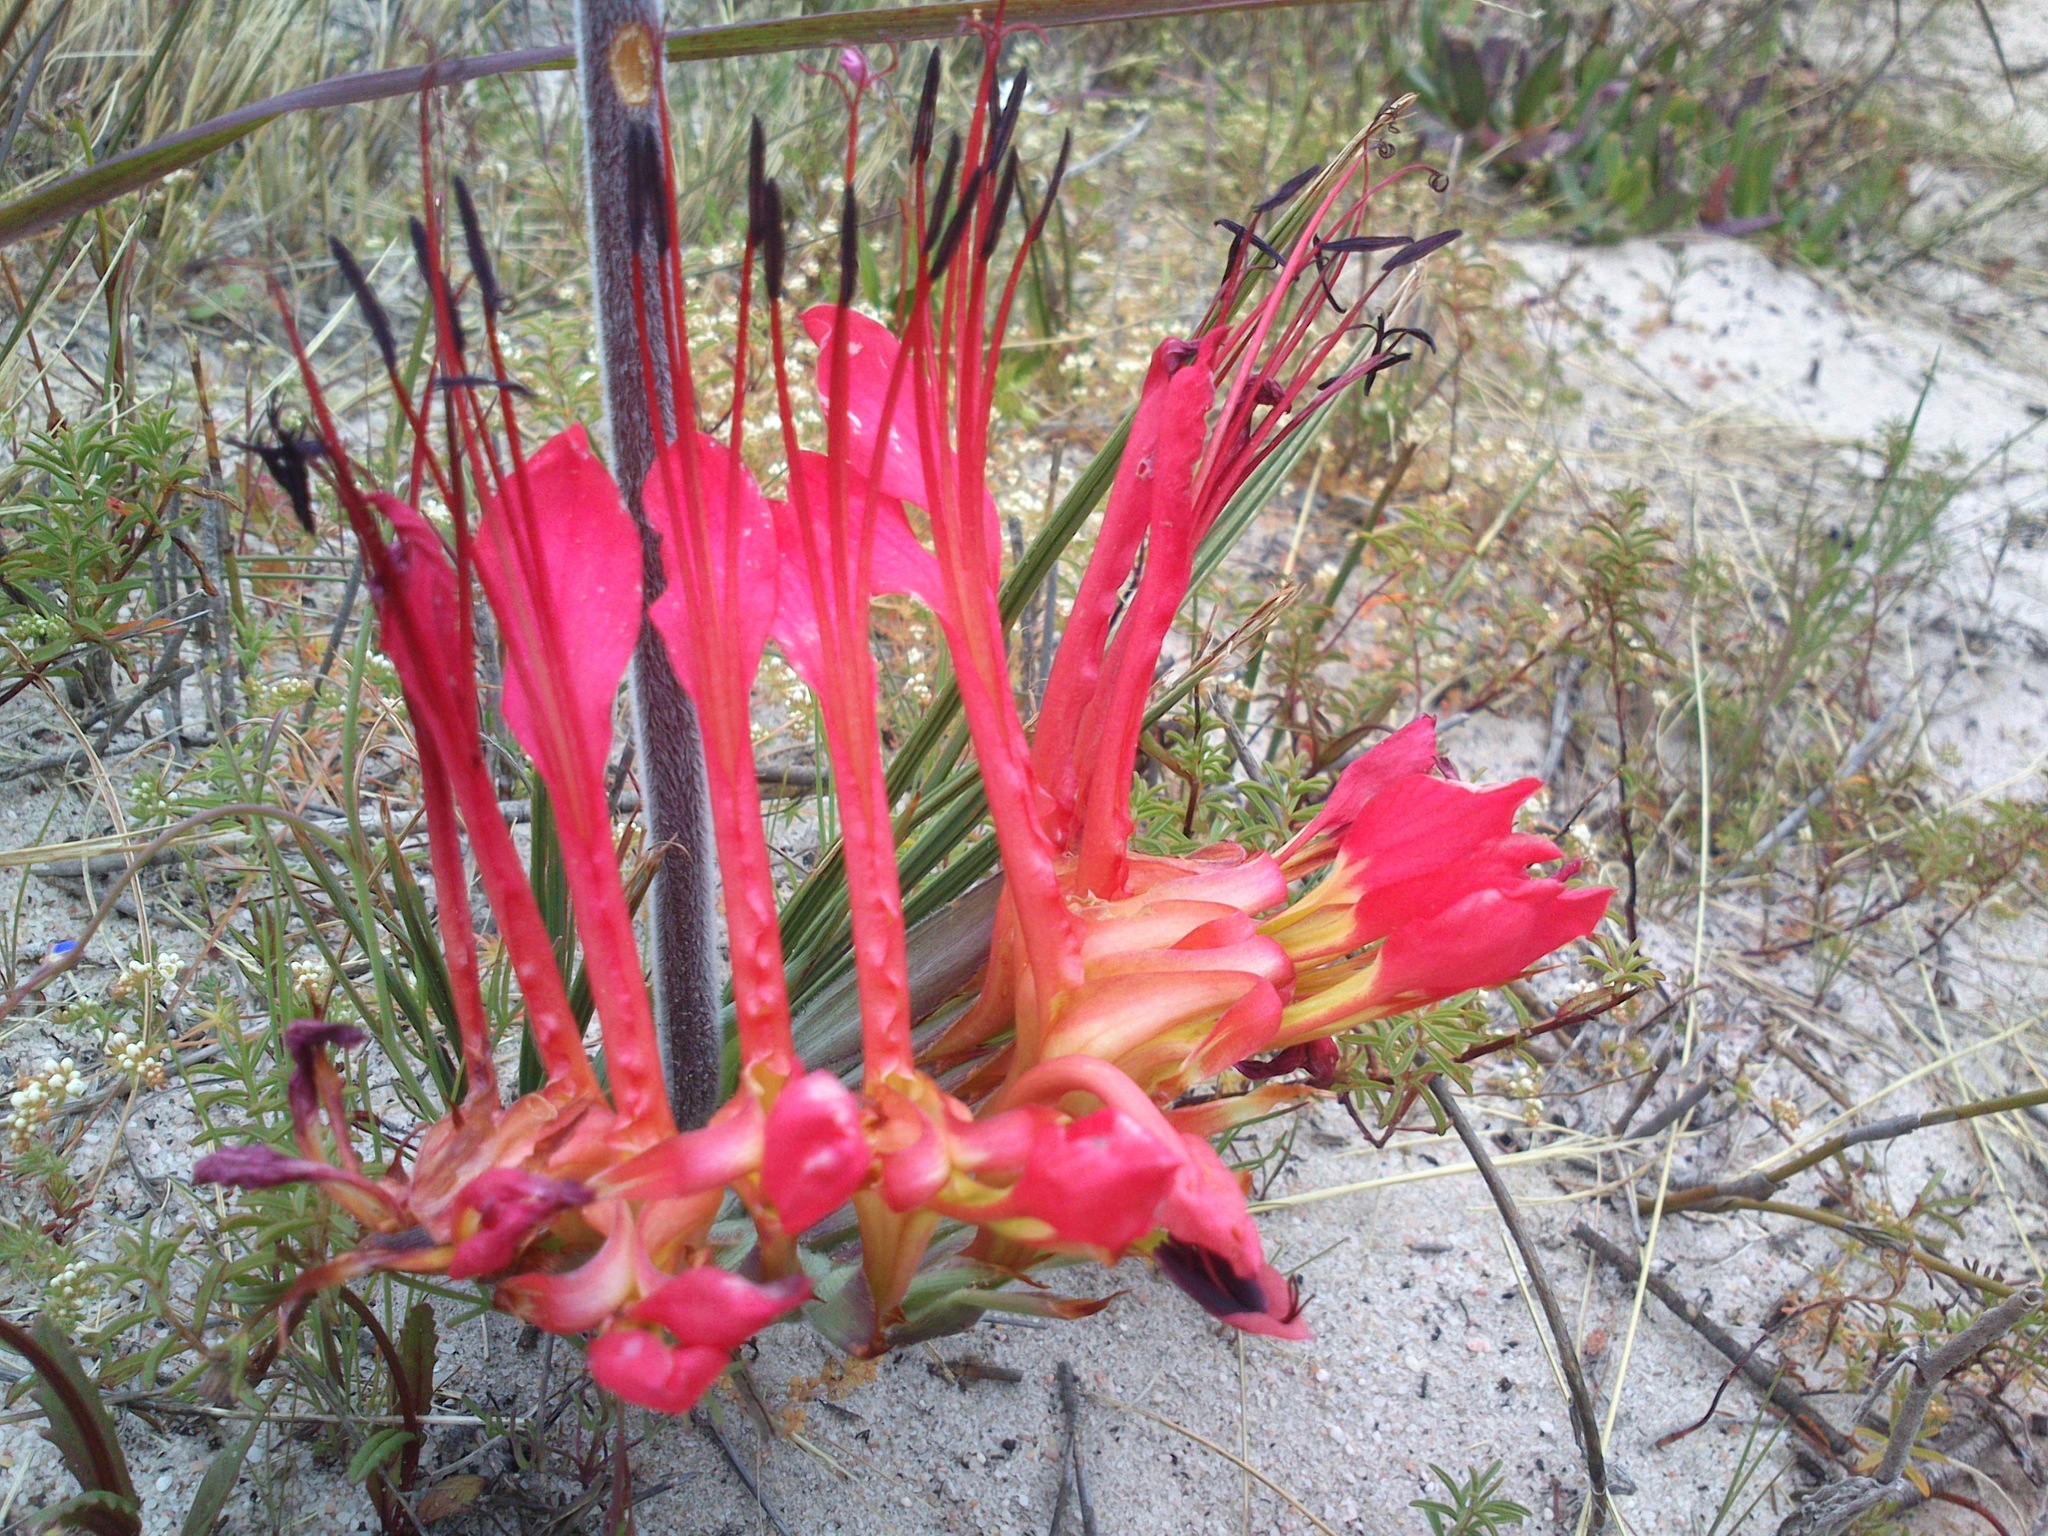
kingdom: Plantae
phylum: Tracheophyta
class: Liliopsida
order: Asparagales
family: Iridaceae
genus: Babiana
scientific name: Babiana ringens
